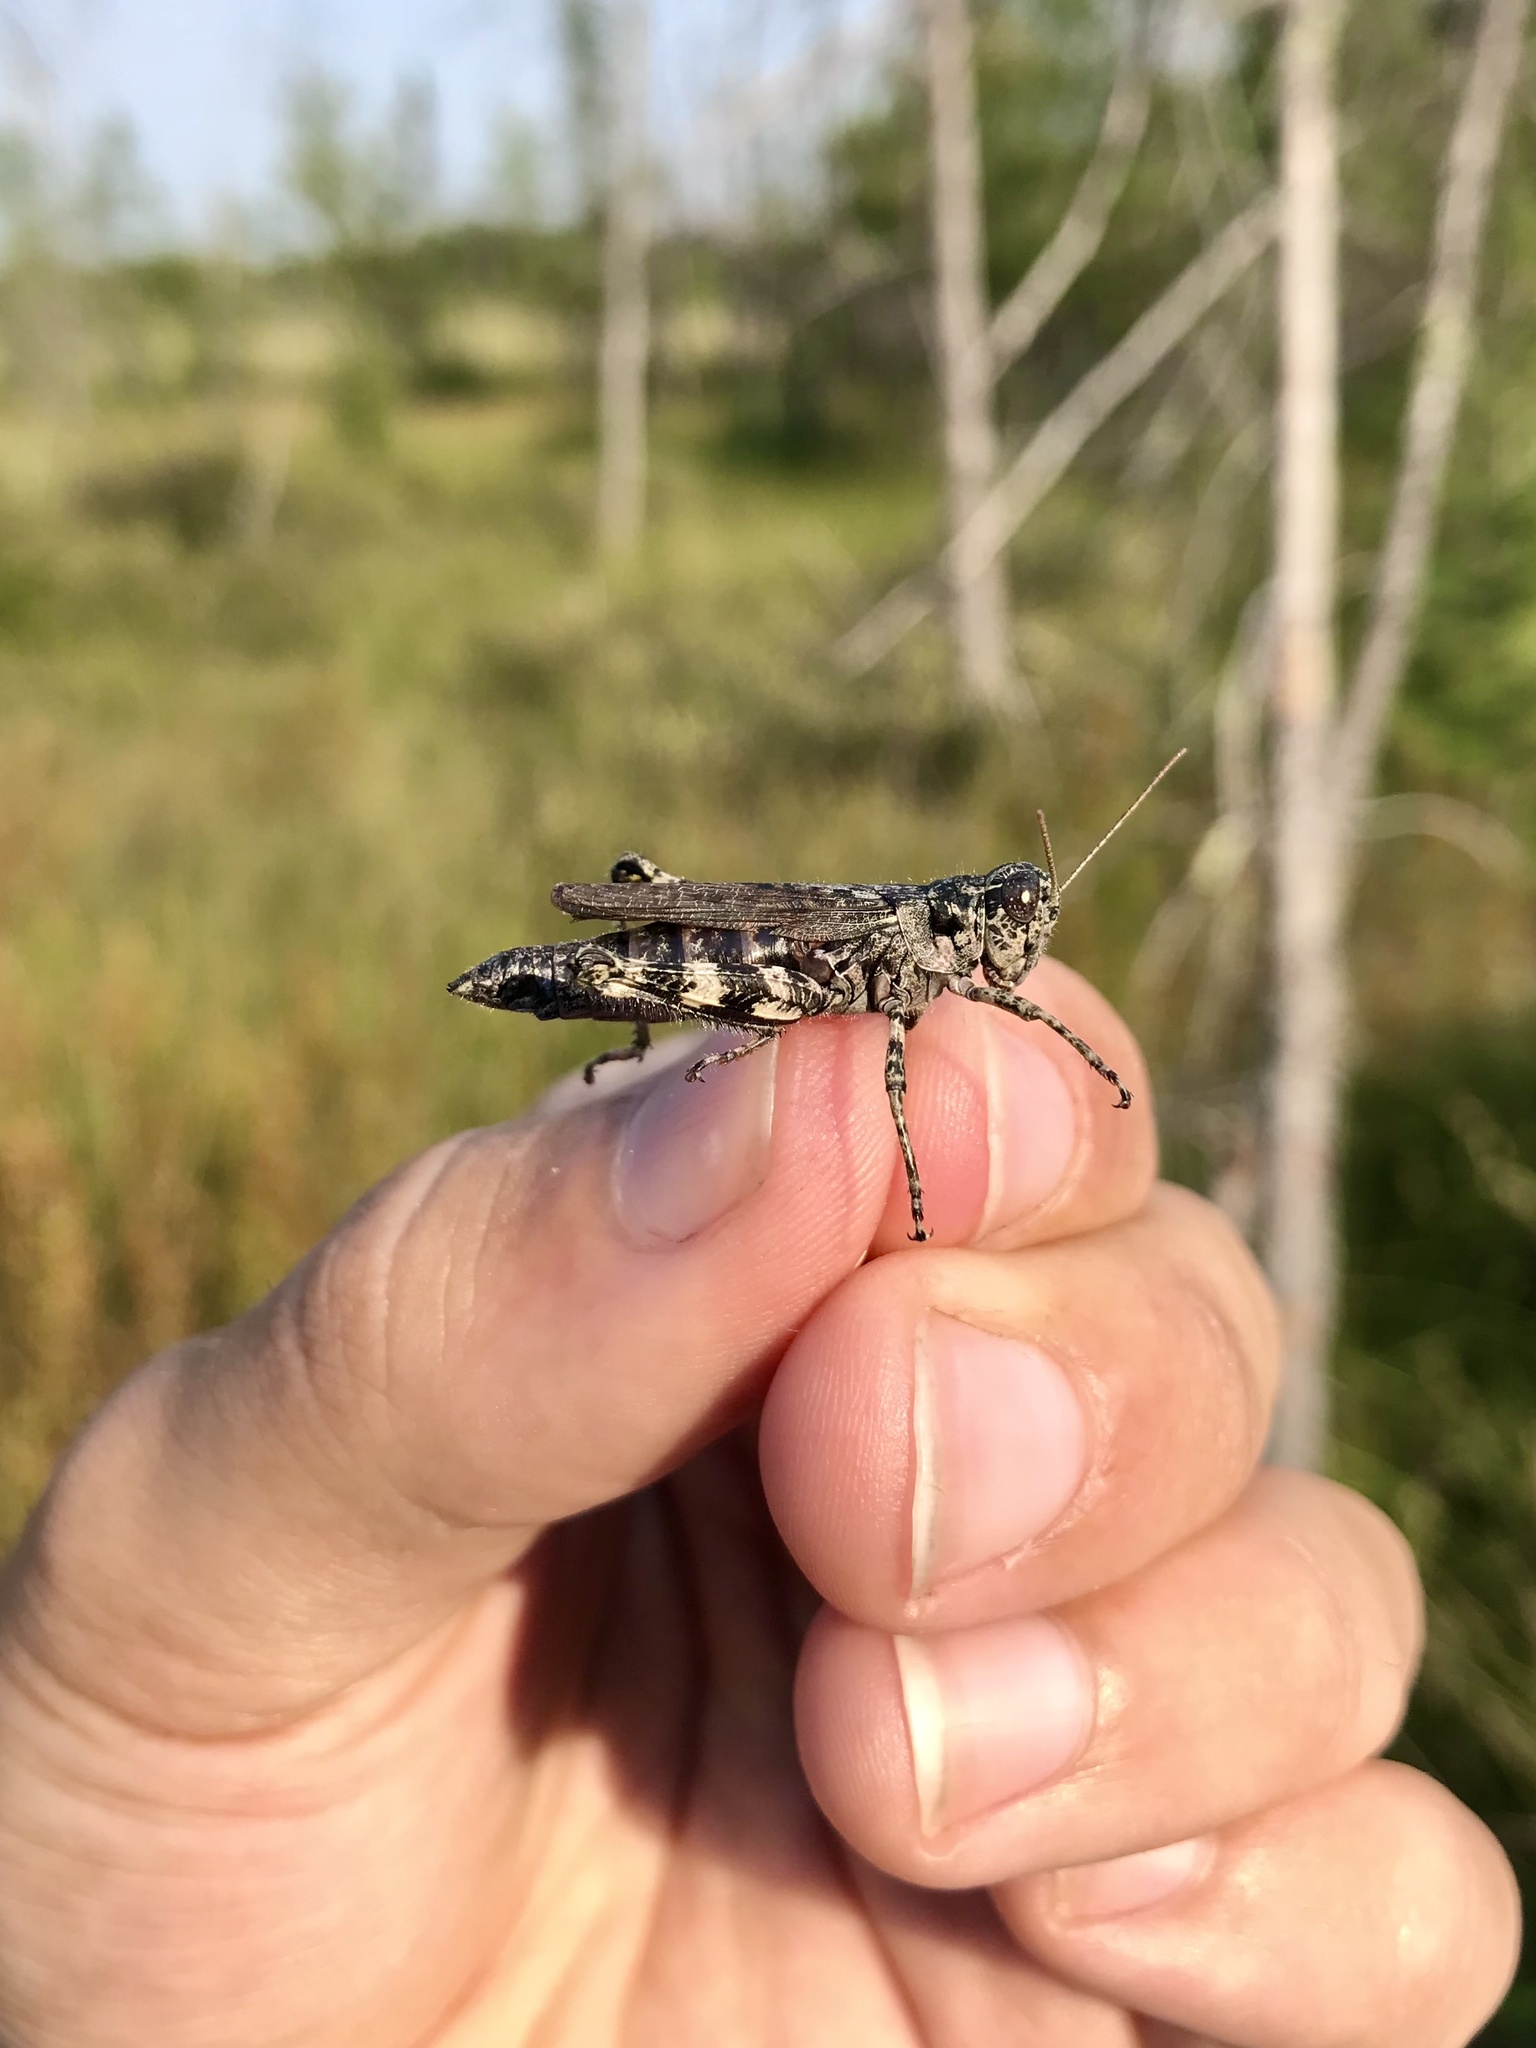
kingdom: Animalia
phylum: Arthropoda
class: Insecta
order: Orthoptera
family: Acrididae
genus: Melanoplus
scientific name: Melanoplus punctulatus
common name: Pine-tree spur-throat grasshopper
